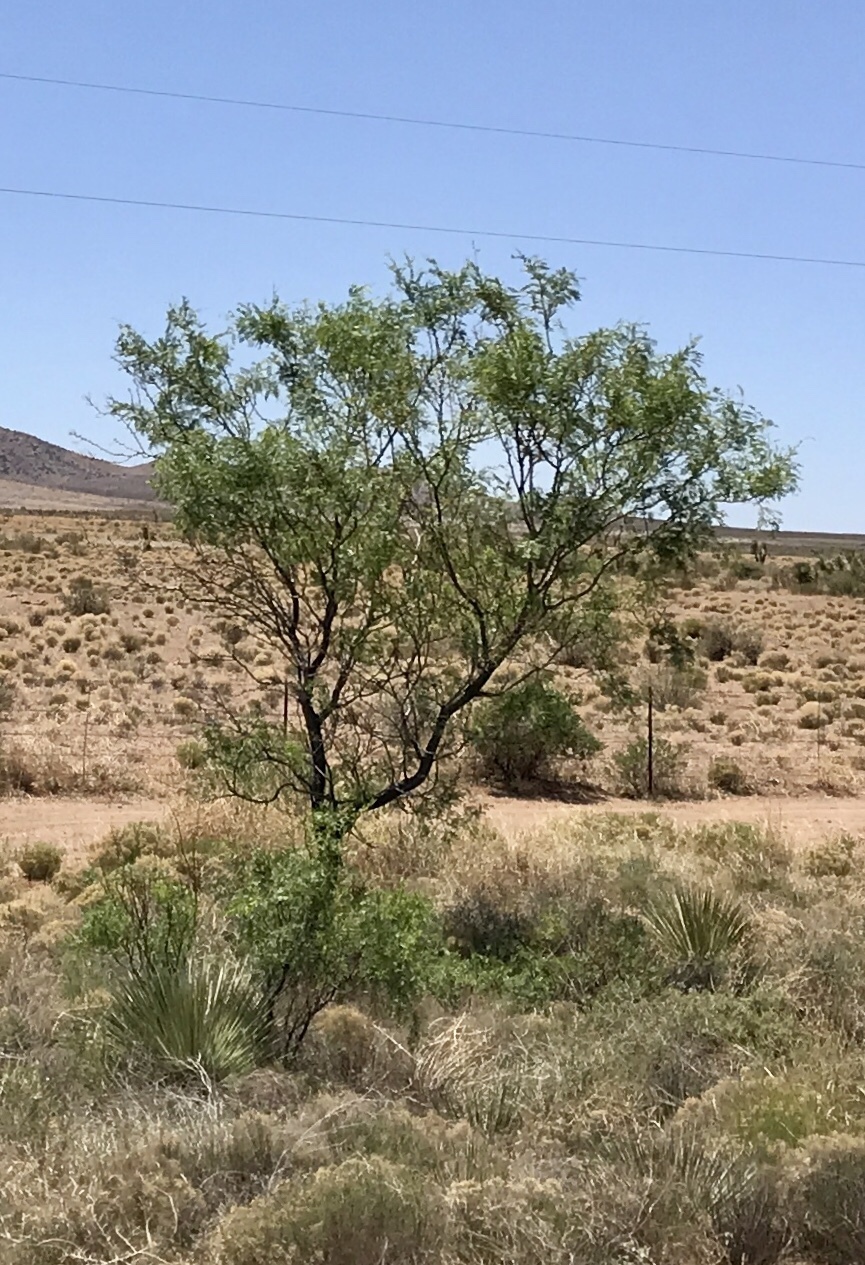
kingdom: Plantae
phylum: Tracheophyta
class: Magnoliopsida
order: Fabales
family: Fabaceae
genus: Prosopis
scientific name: Prosopis glandulosa
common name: Honey mesquite
